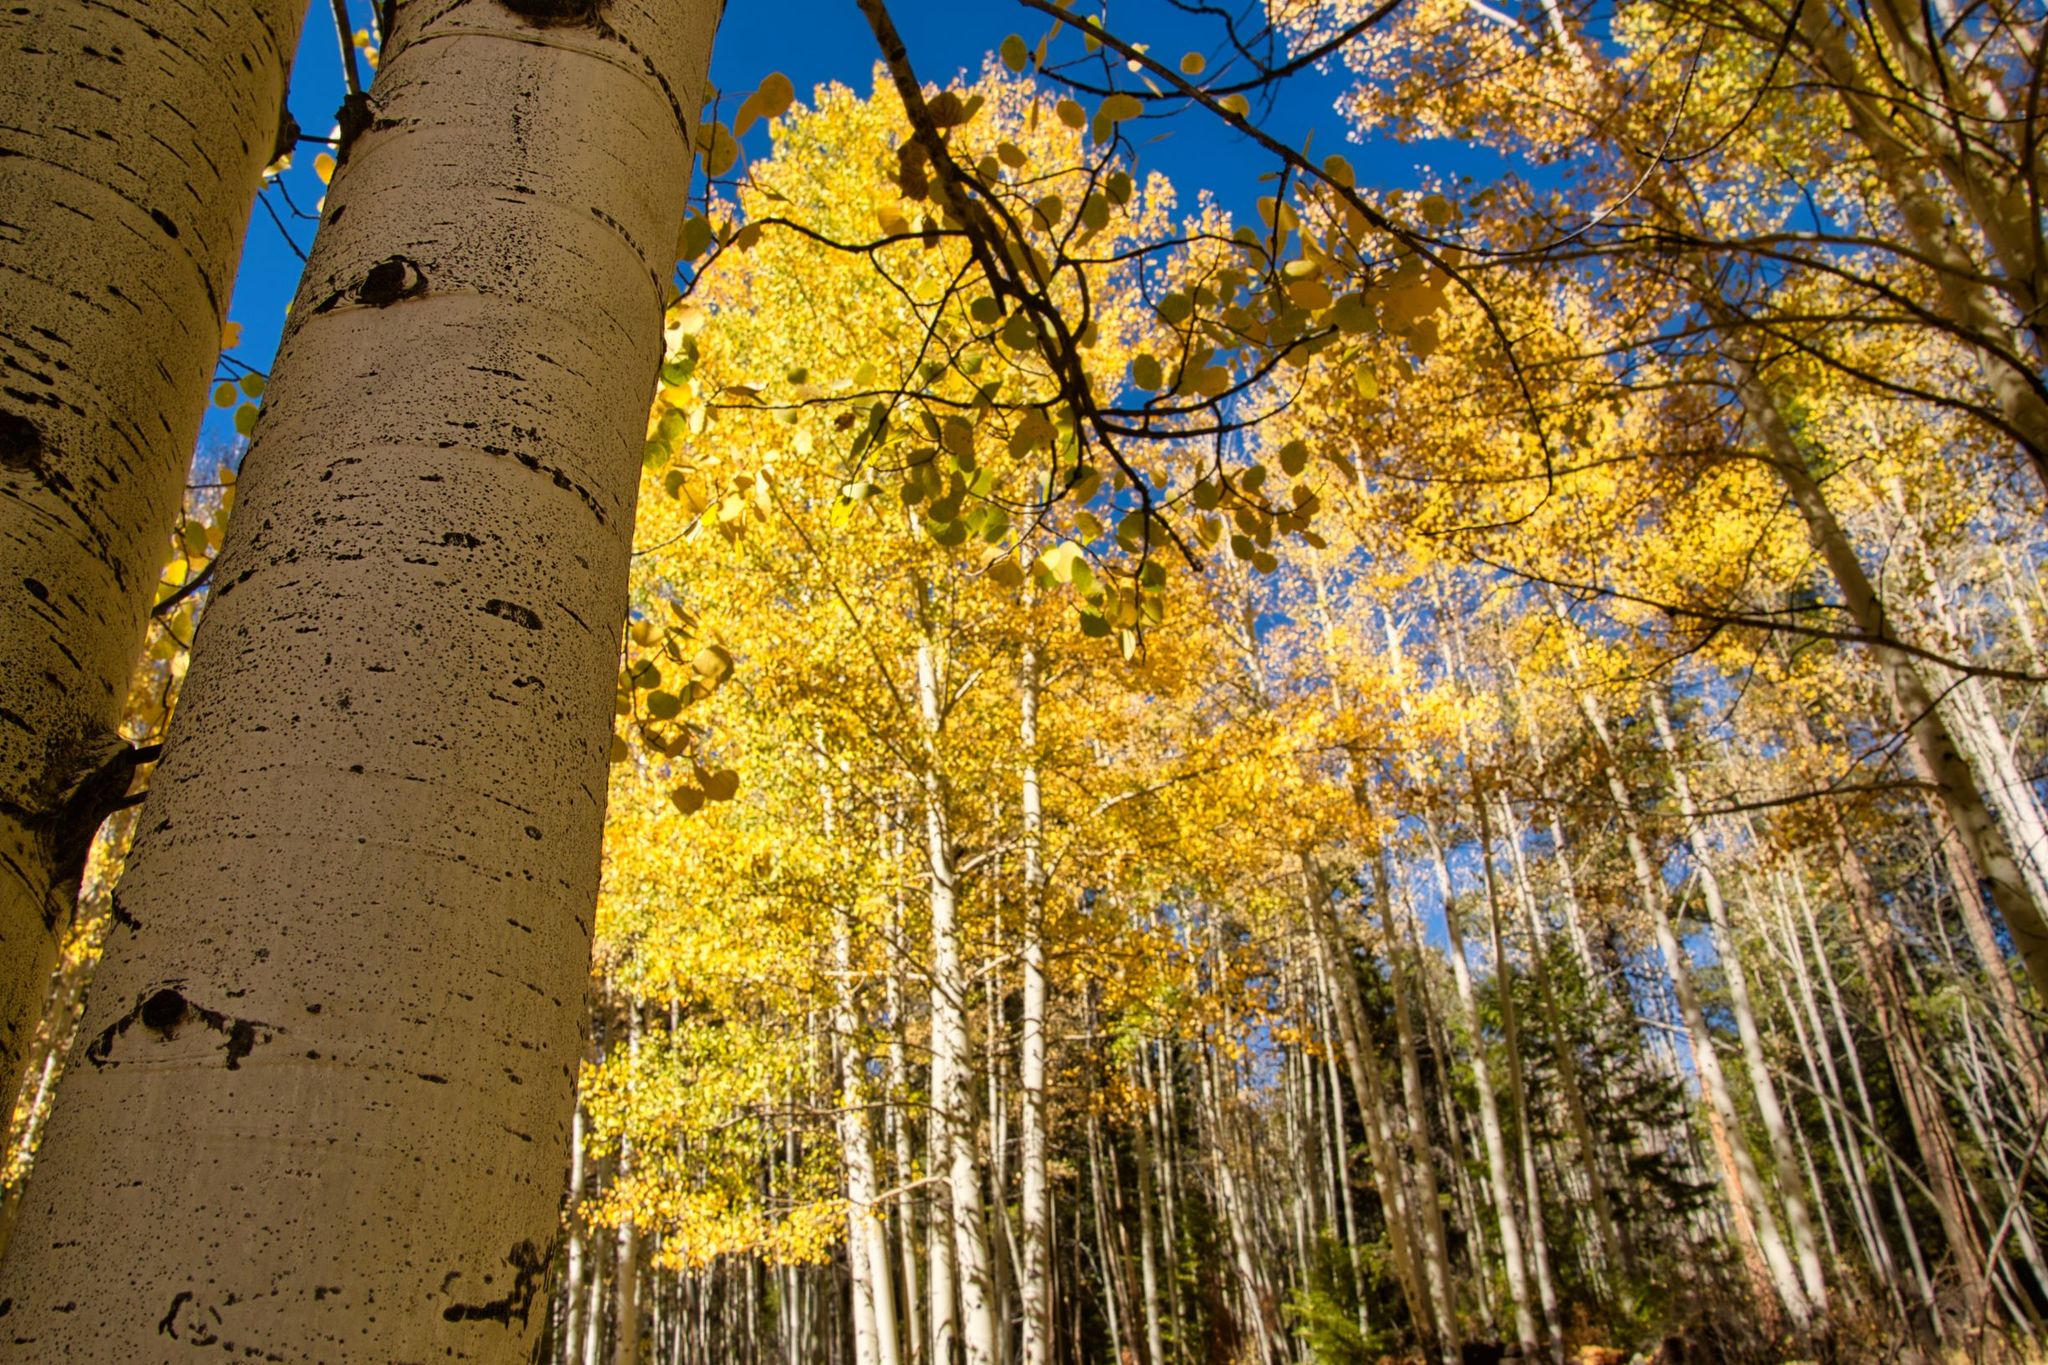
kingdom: Plantae
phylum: Tracheophyta
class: Magnoliopsida
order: Malpighiales
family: Salicaceae
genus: Populus
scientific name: Populus tremuloides
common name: Quaking aspen
